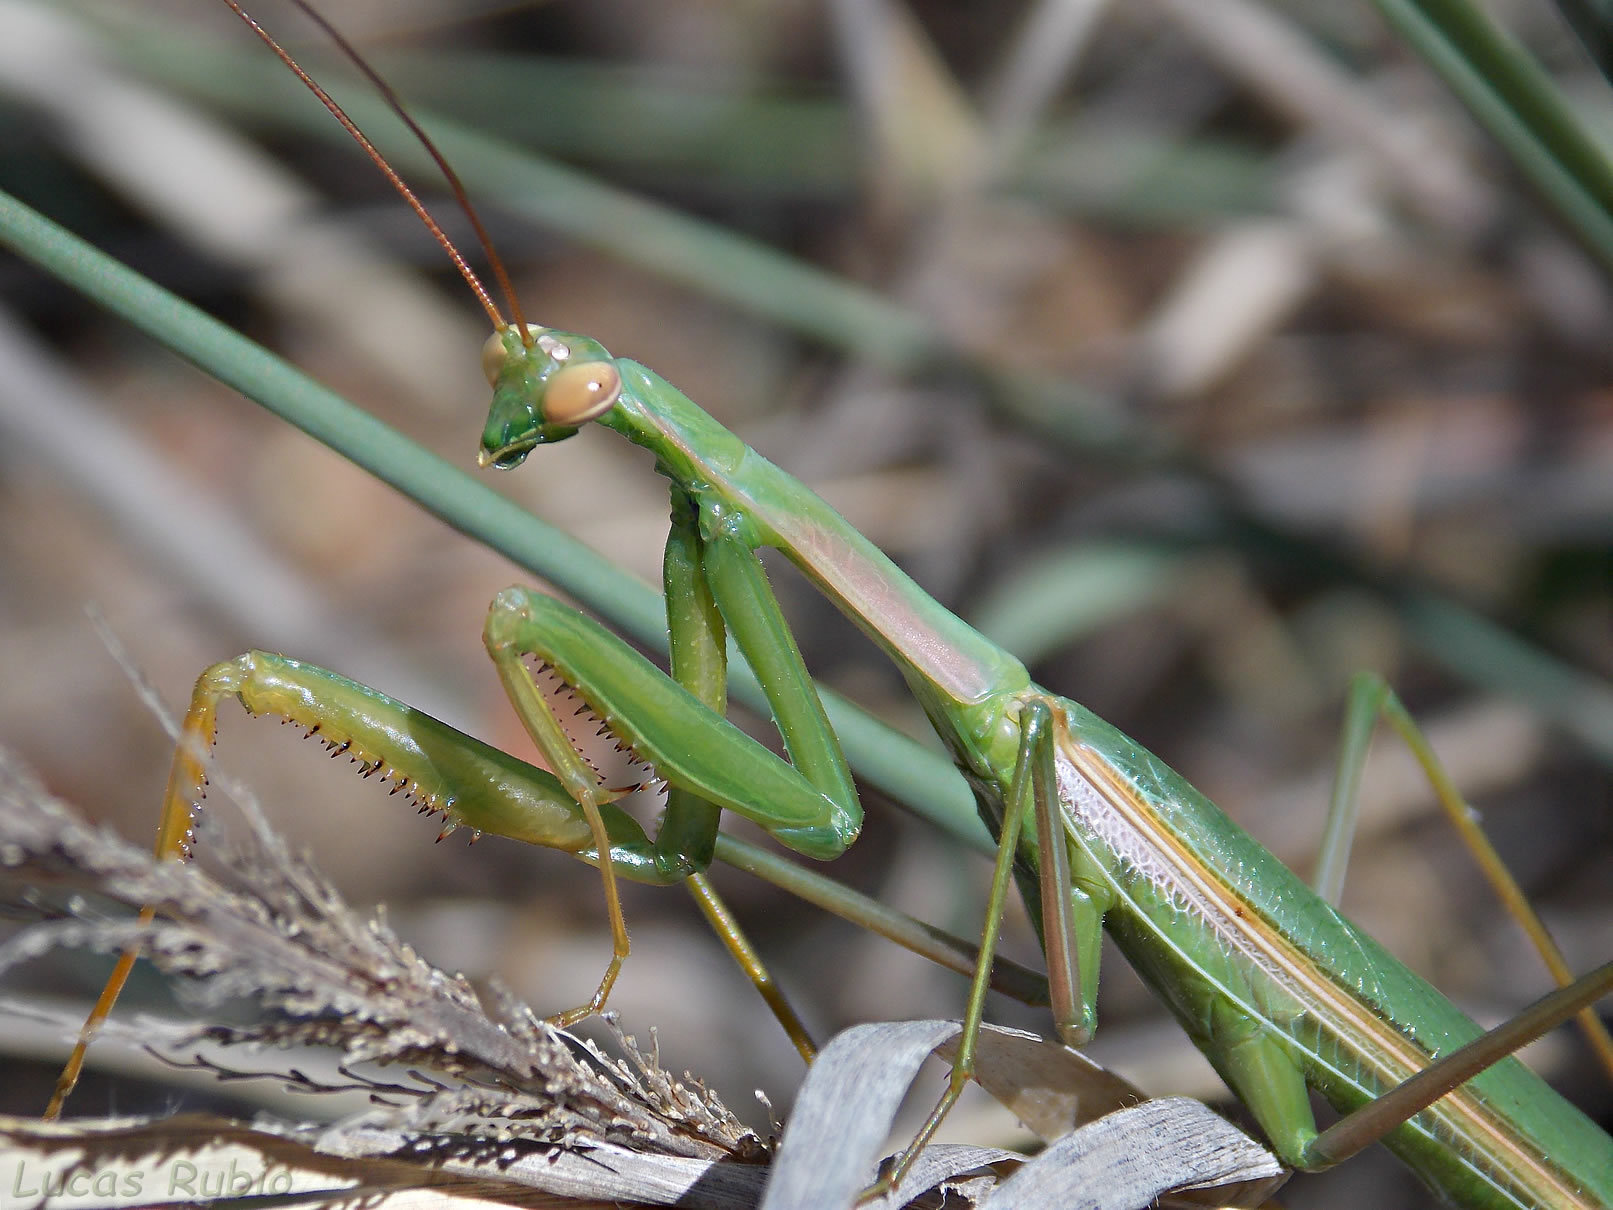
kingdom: Animalia
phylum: Arthropoda
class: Insecta
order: Mantodea
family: Coptopterygidae
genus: Coptopteryx
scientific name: Coptopteryx argentina
